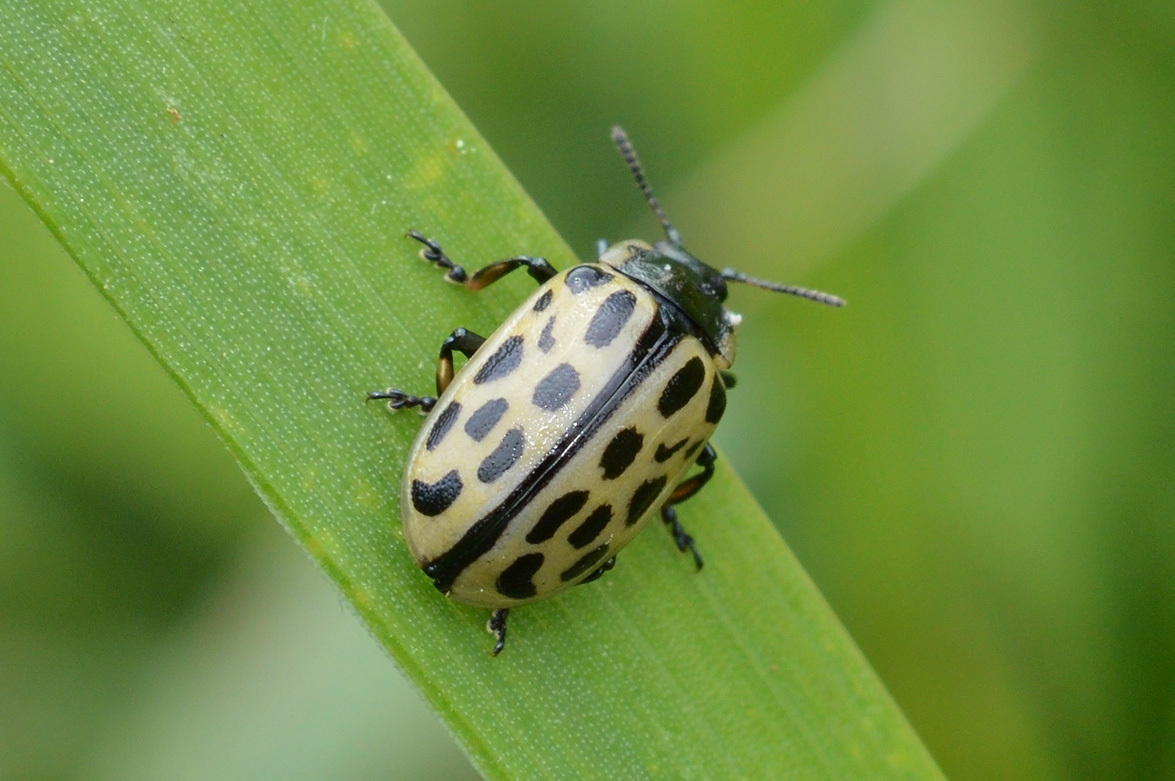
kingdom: Animalia
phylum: Arthropoda
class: Insecta
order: Coleoptera
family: Chrysomelidae
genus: Chrysomela
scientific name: Chrysomela vigintipunctata
